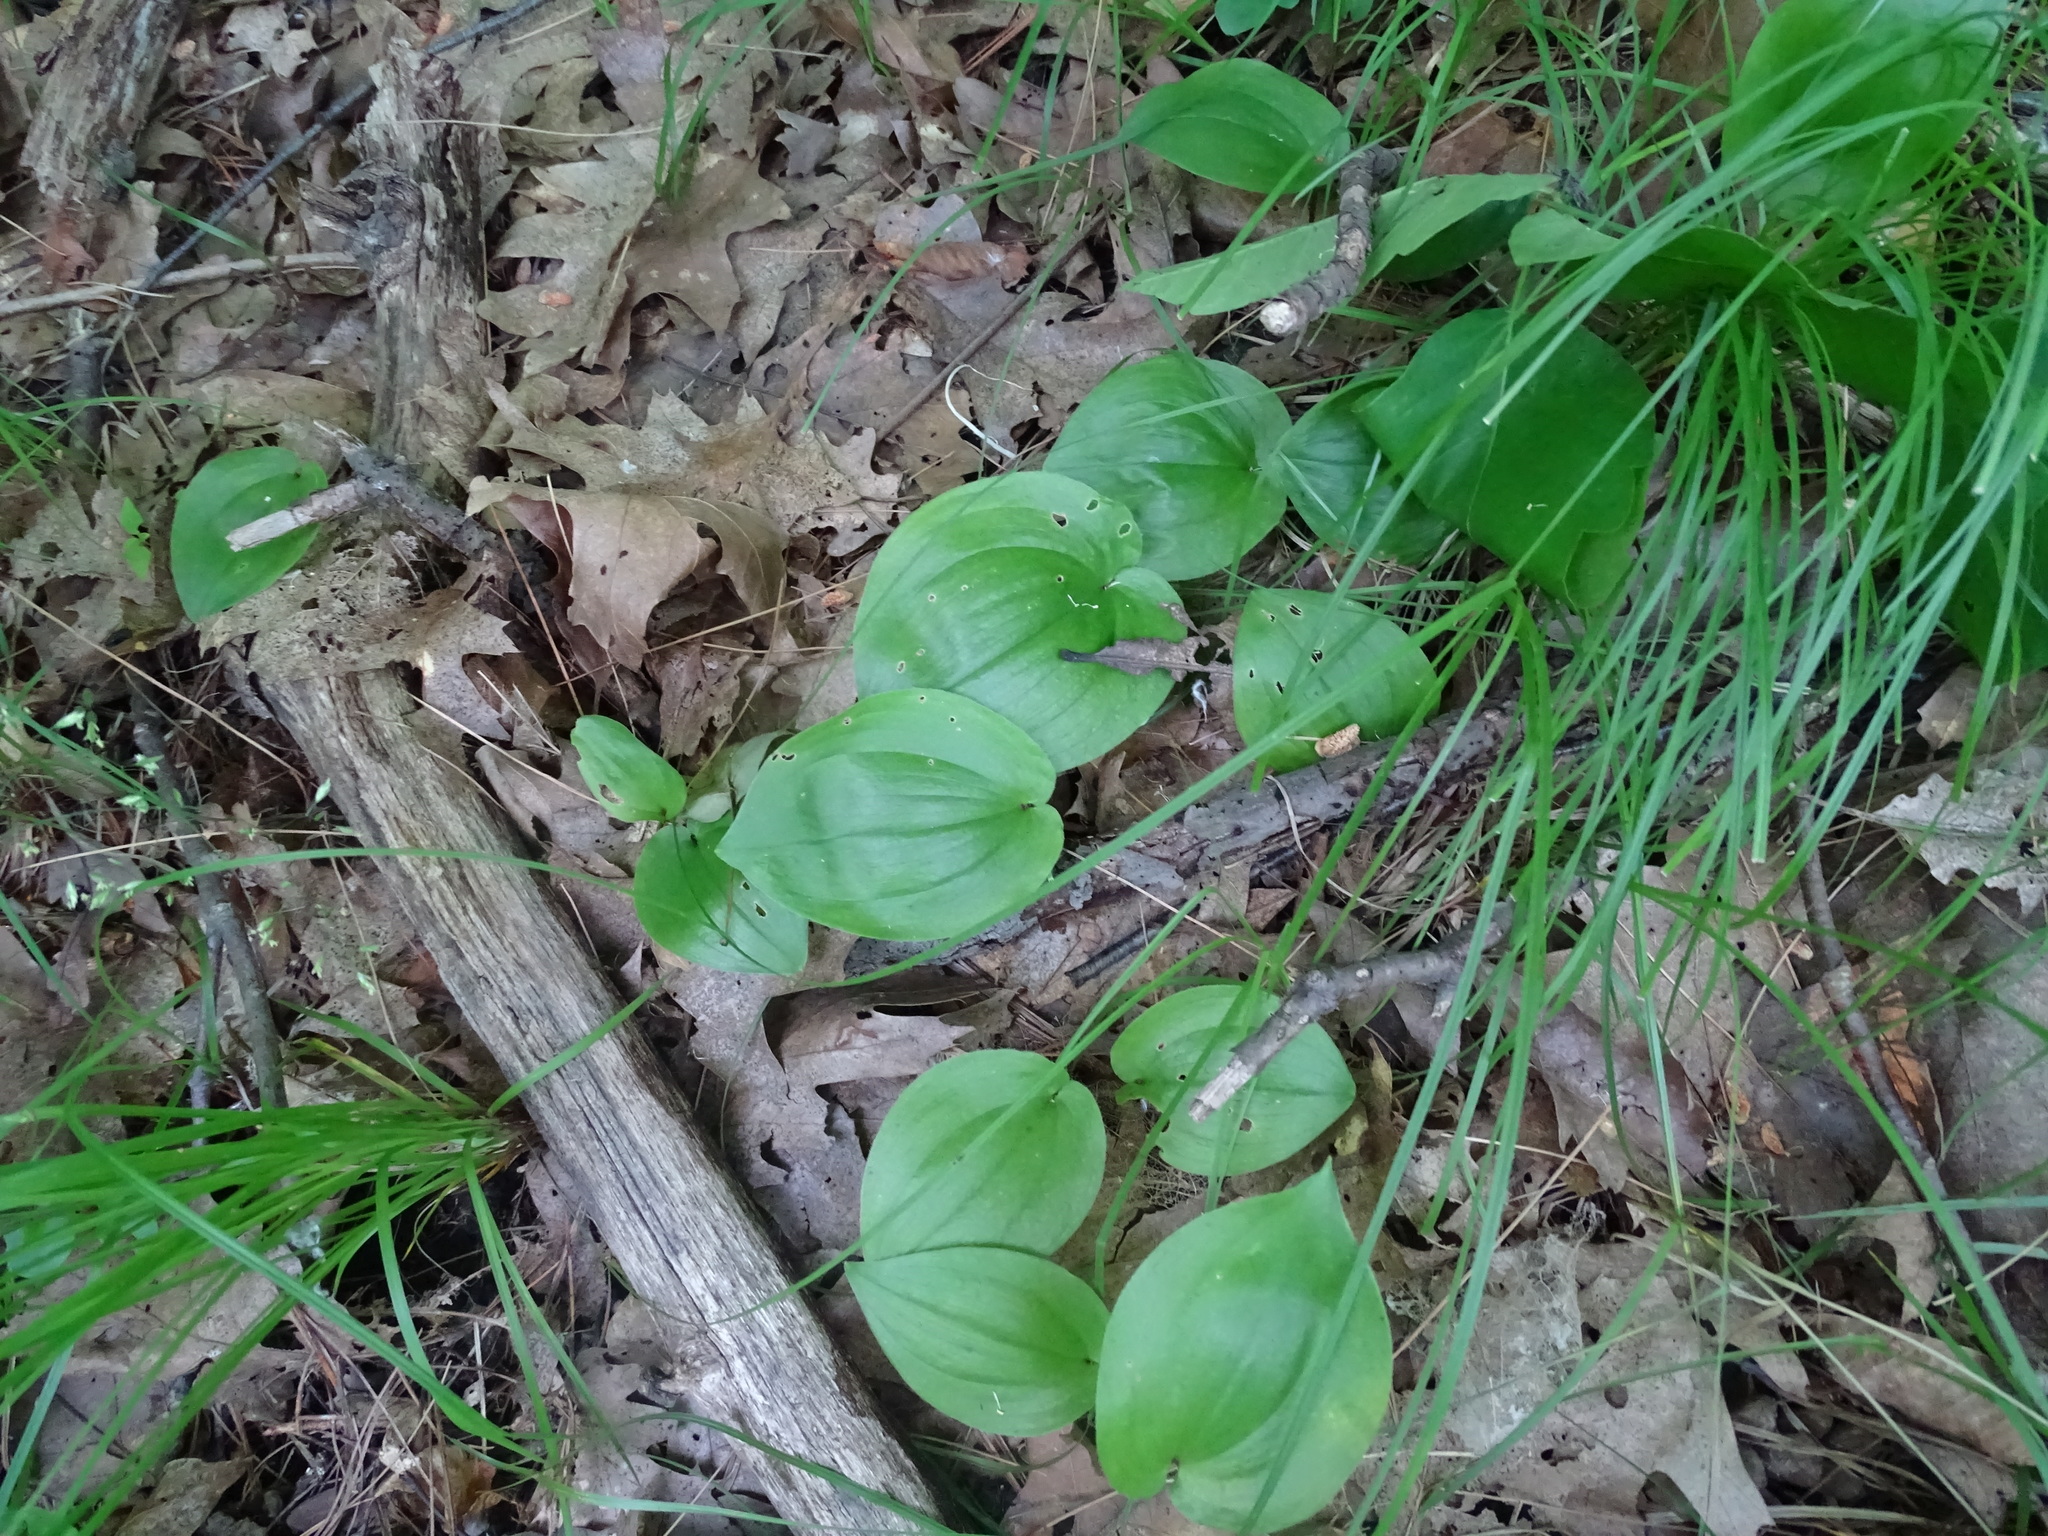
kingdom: Plantae
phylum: Tracheophyta
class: Liliopsida
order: Asparagales
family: Asparagaceae
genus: Maianthemum
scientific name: Maianthemum canadense
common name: False lily-of-the-valley
